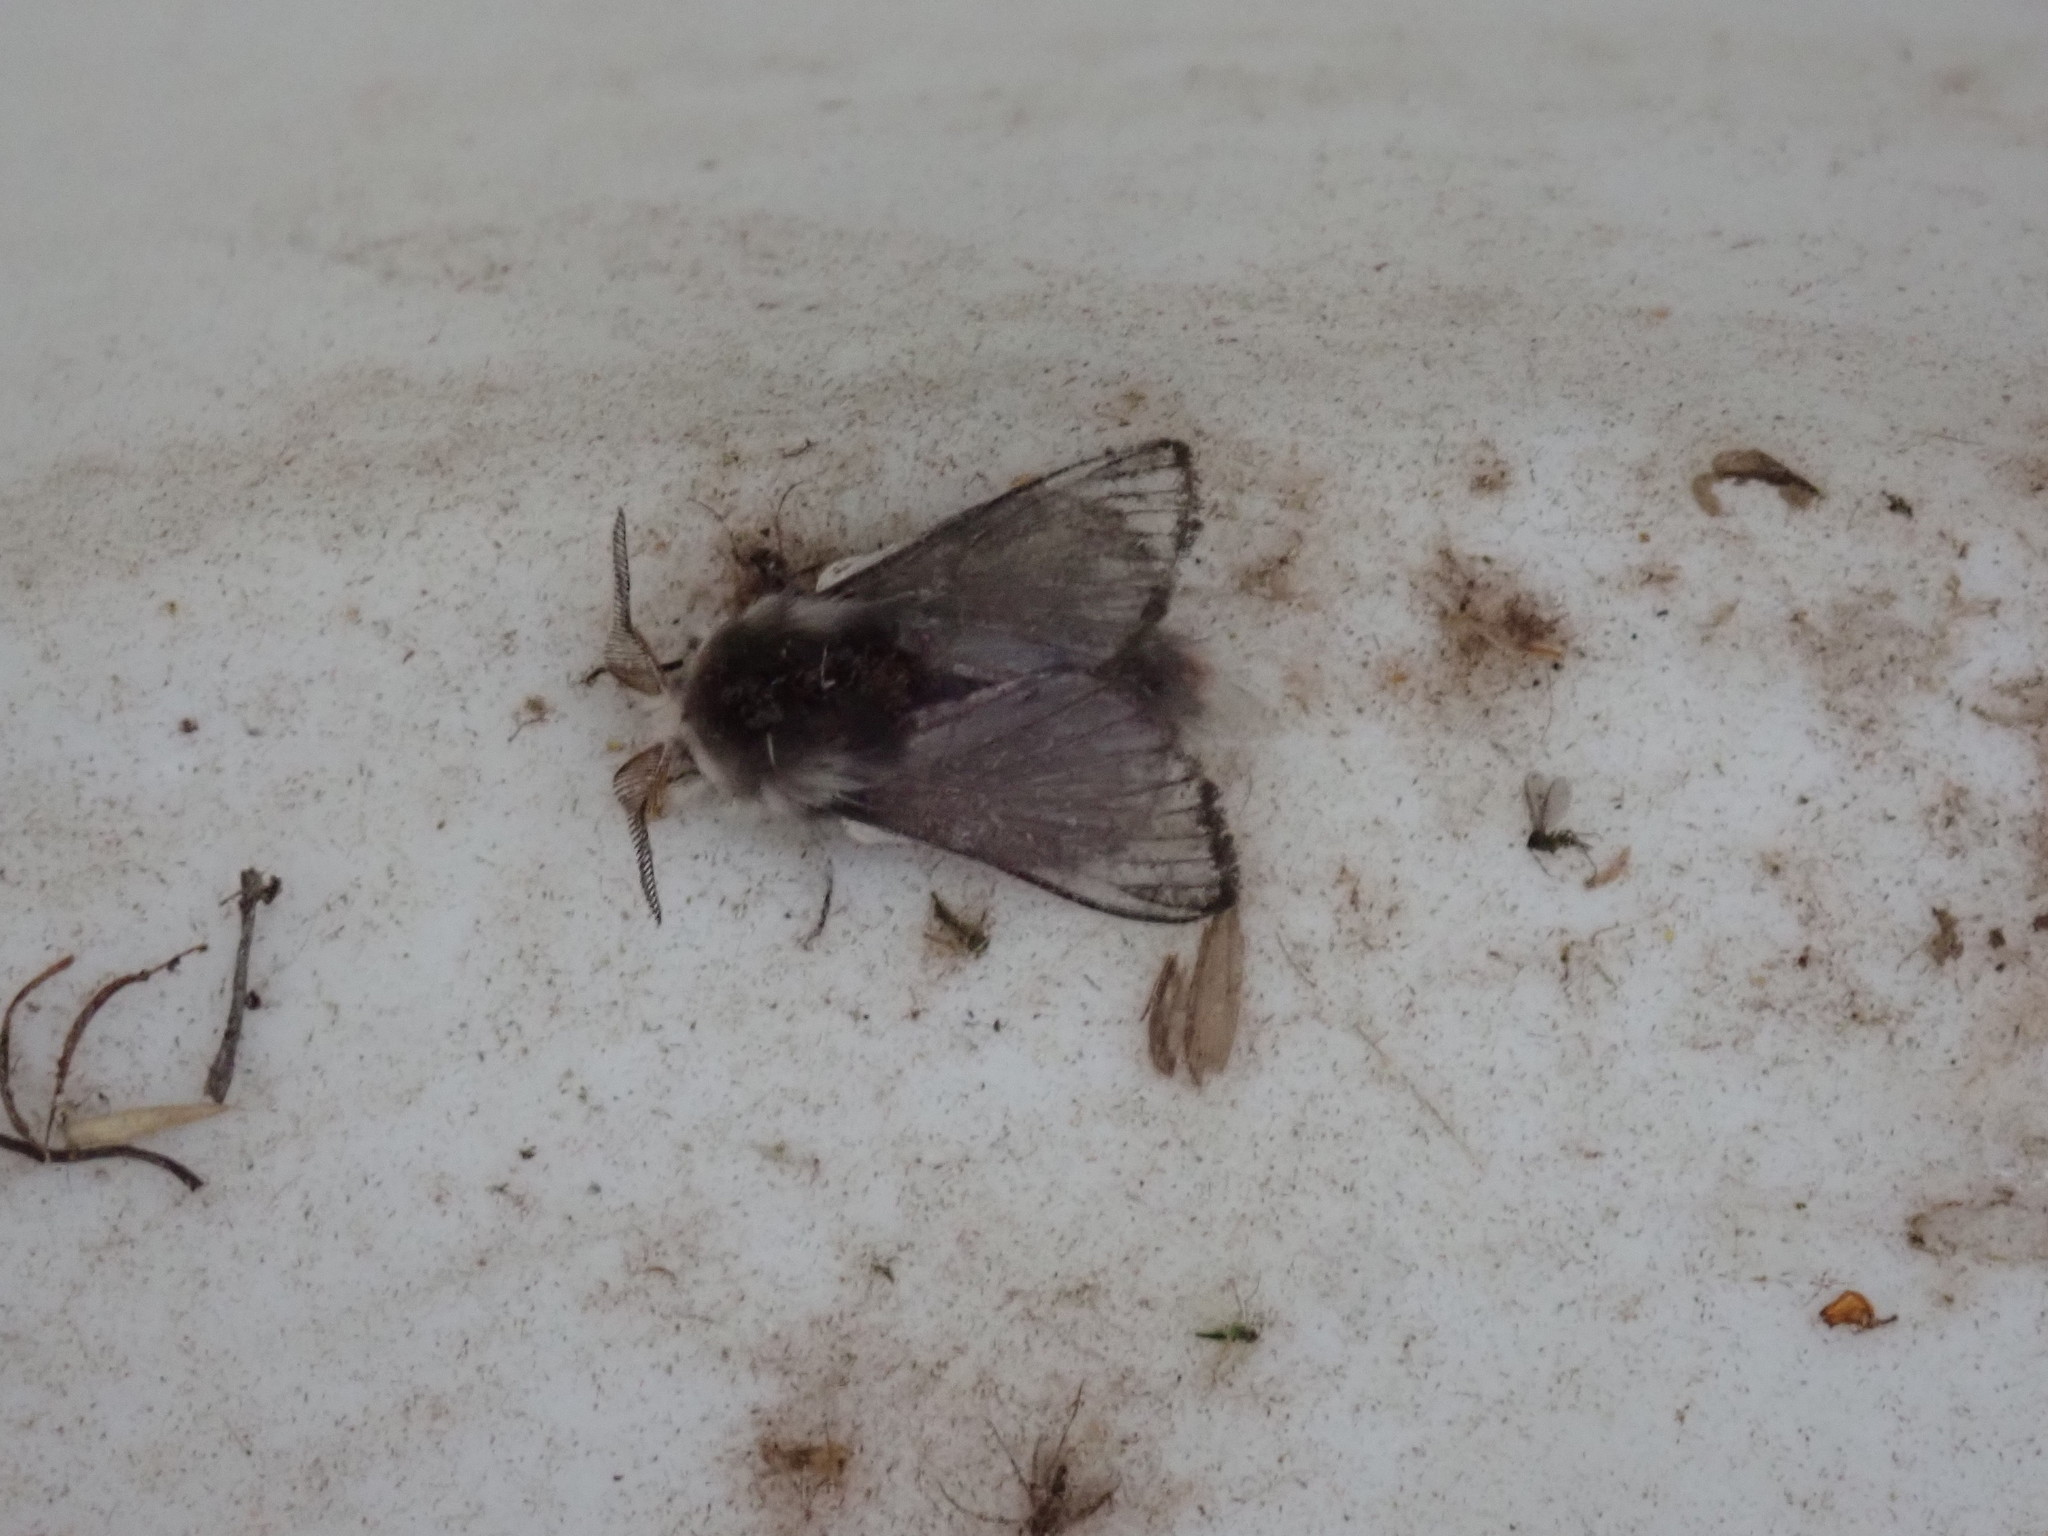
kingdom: Animalia
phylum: Arthropoda
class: Insecta
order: Lepidoptera
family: Lasiocampidae
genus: Tolype
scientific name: Tolype laricis
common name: Larch tolype moth
